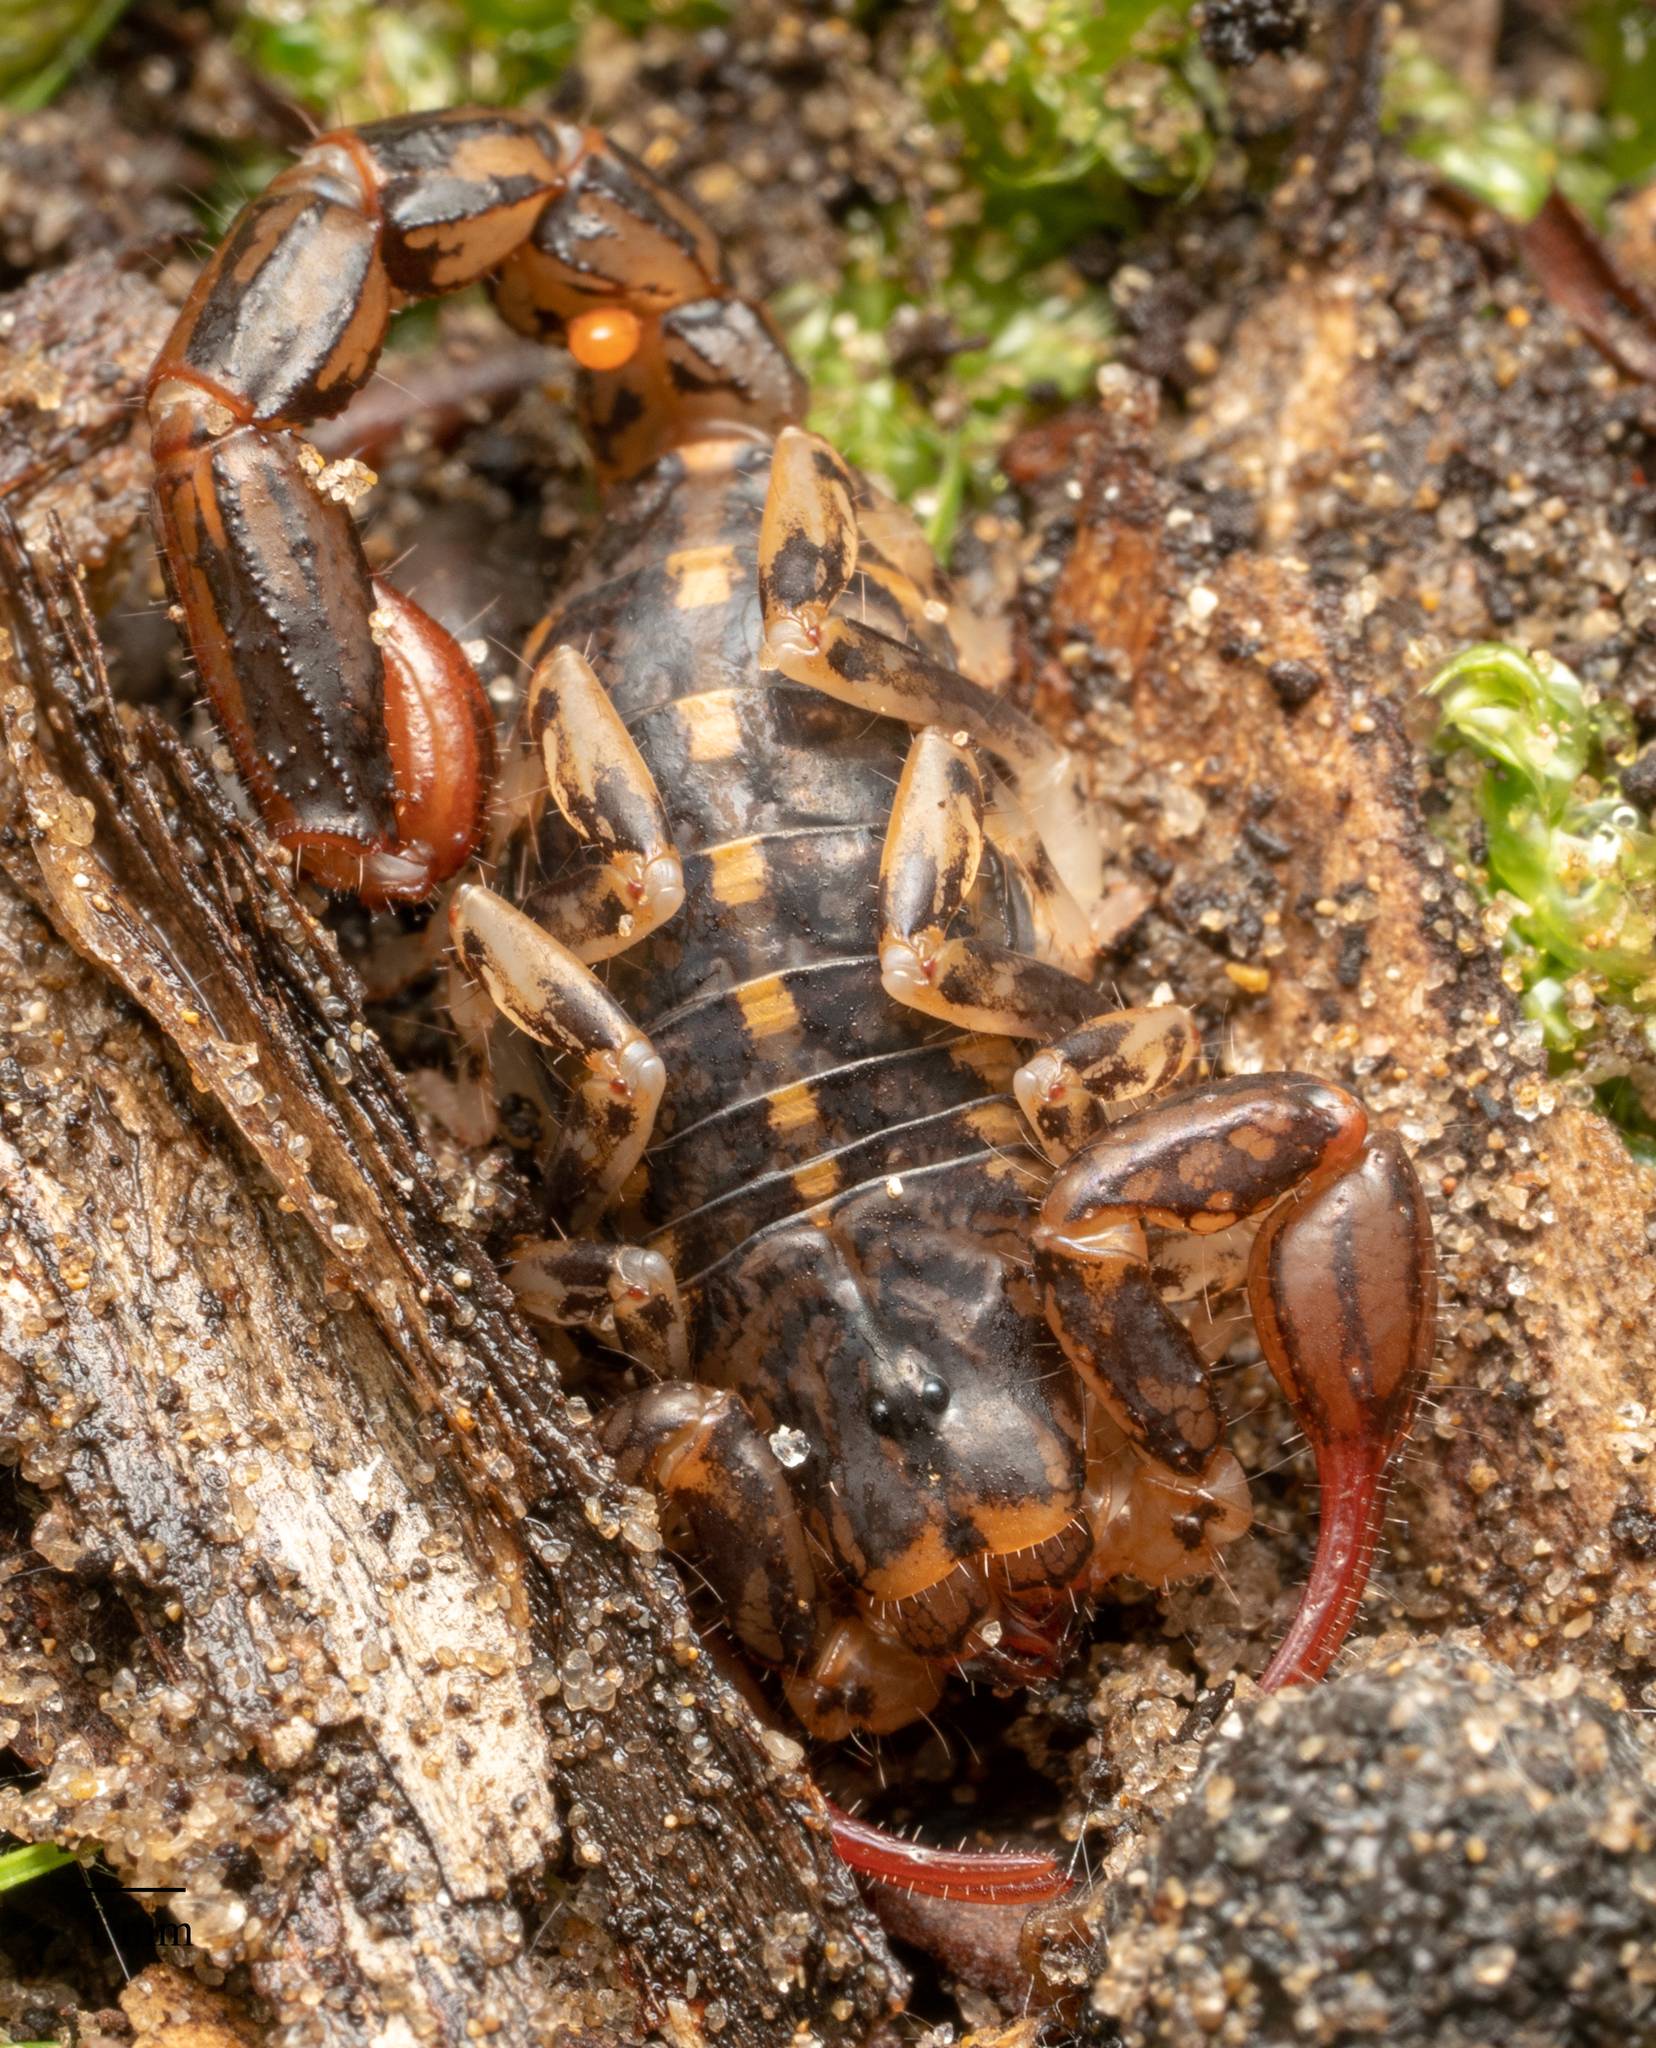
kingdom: Animalia
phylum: Arthropoda
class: Arachnida
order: Scorpiones
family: Bothriuridae
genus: Cercophonius
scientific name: Cercophonius squama
